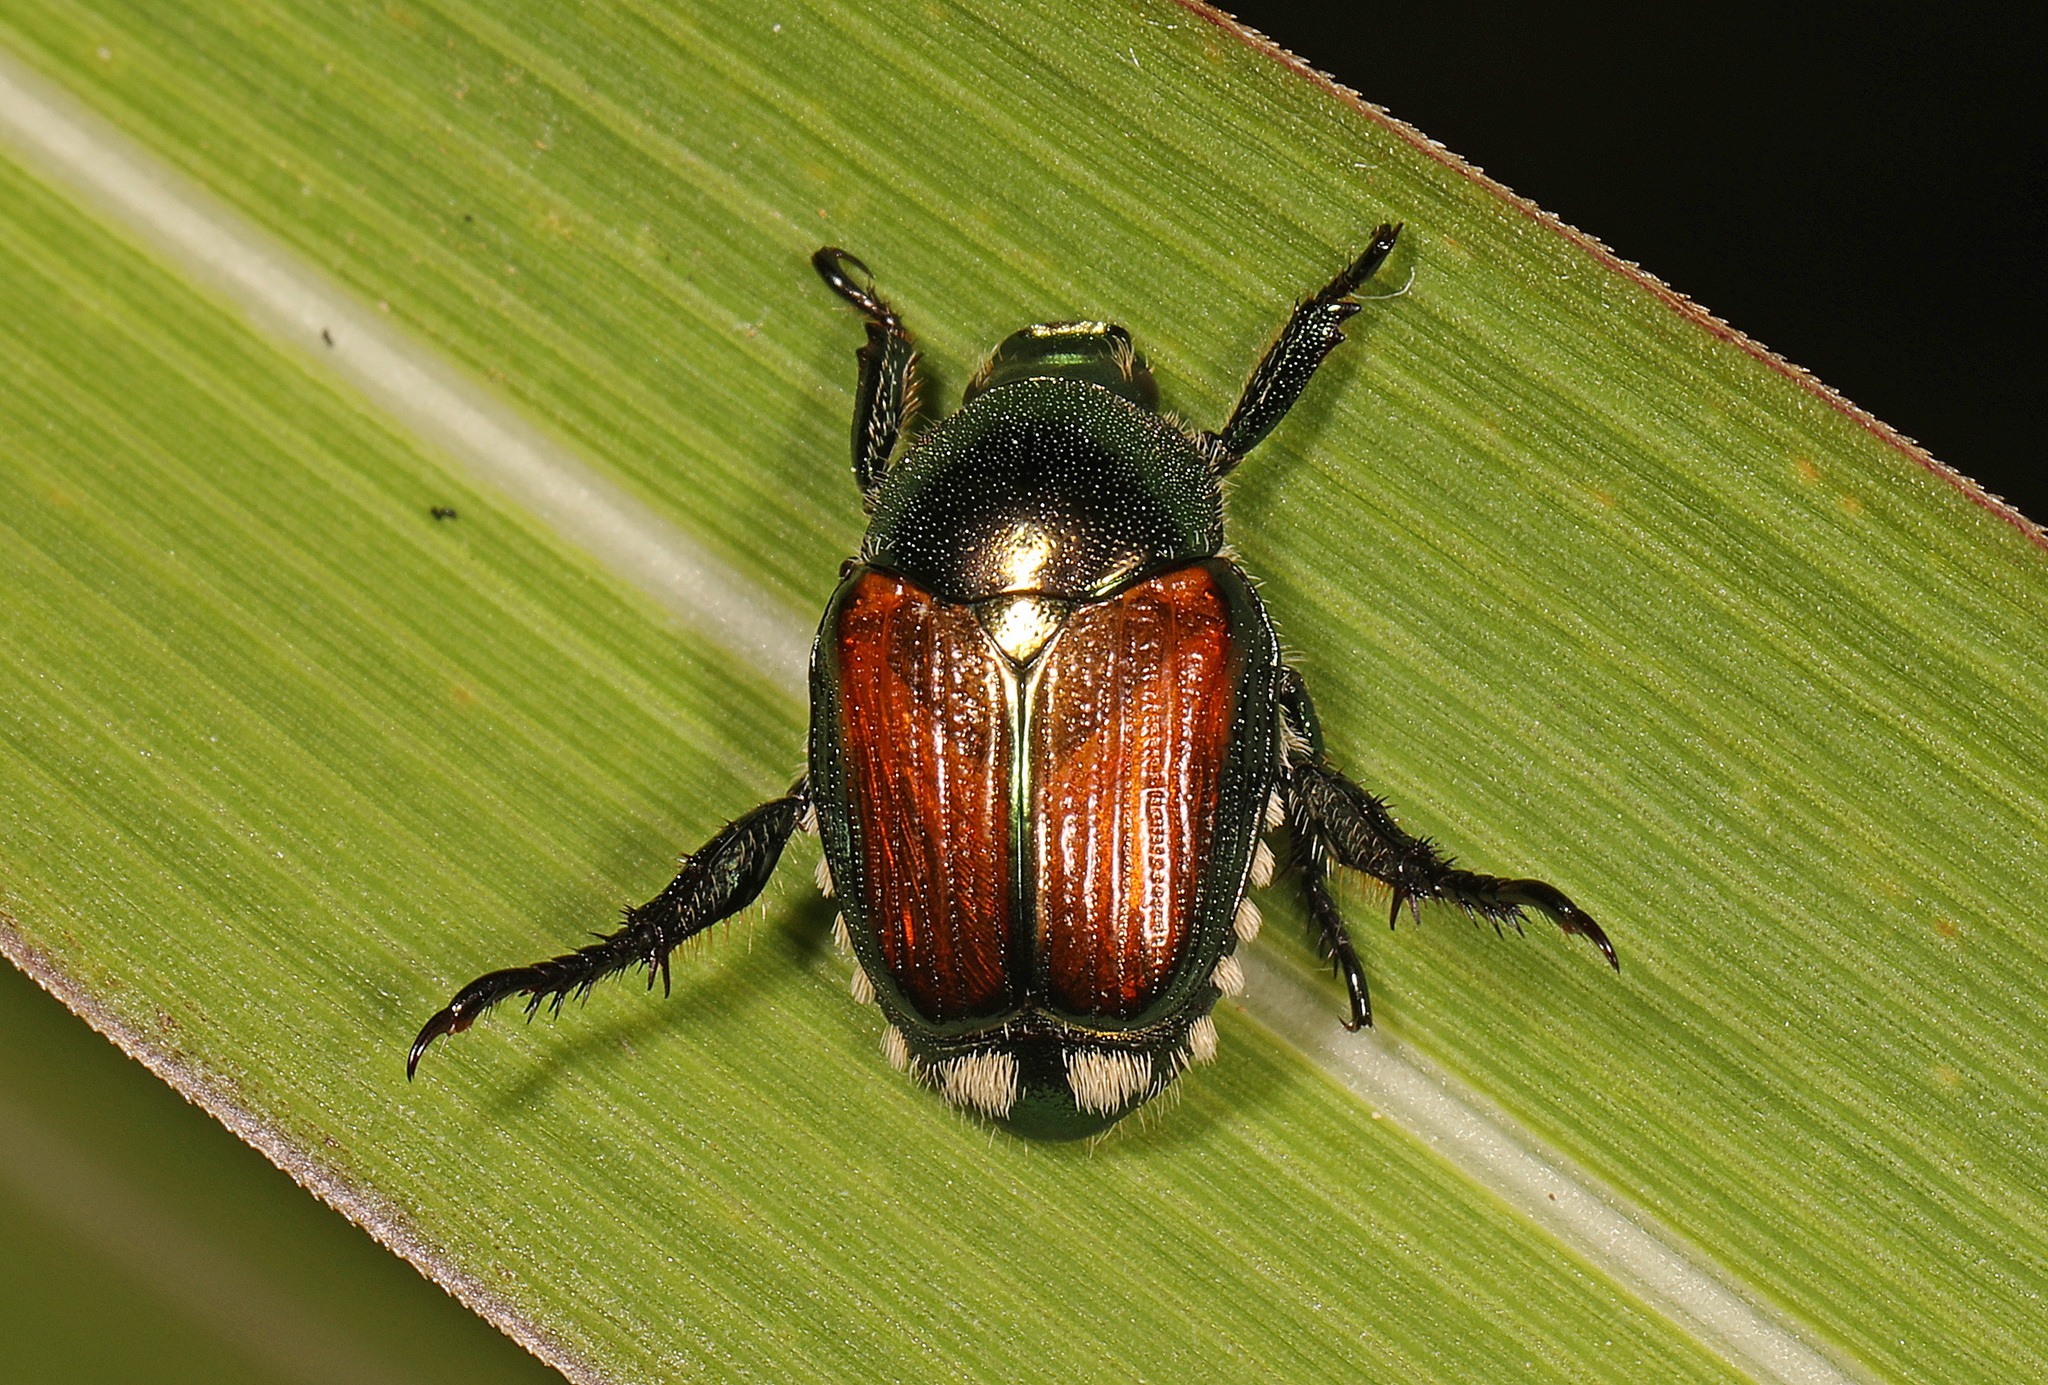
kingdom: Animalia
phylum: Arthropoda
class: Insecta
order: Coleoptera
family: Scarabaeidae
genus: Popillia
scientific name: Popillia japonica
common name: Japanese beetle
